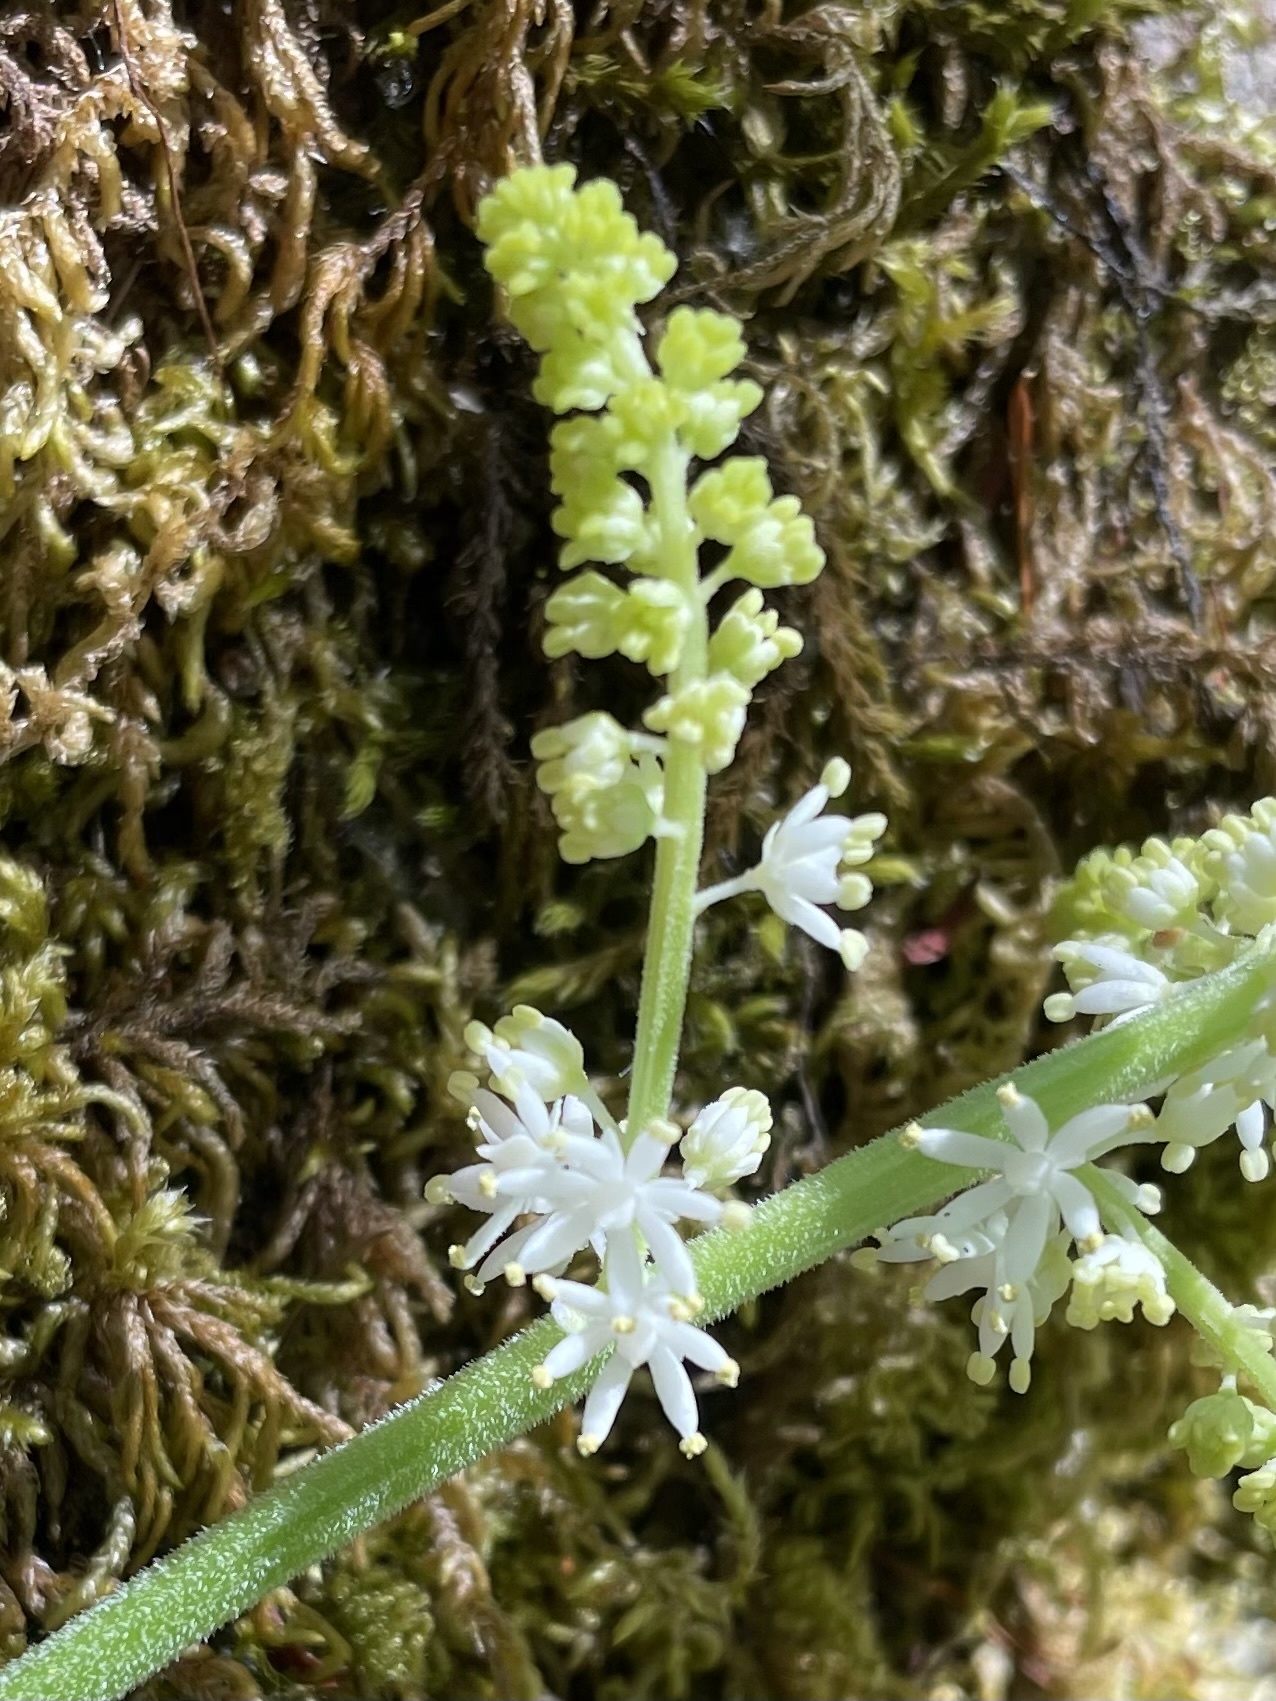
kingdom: Plantae
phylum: Tracheophyta
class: Liliopsida
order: Asparagales
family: Asparagaceae
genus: Maianthemum
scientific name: Maianthemum racemosum
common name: False spikenard
